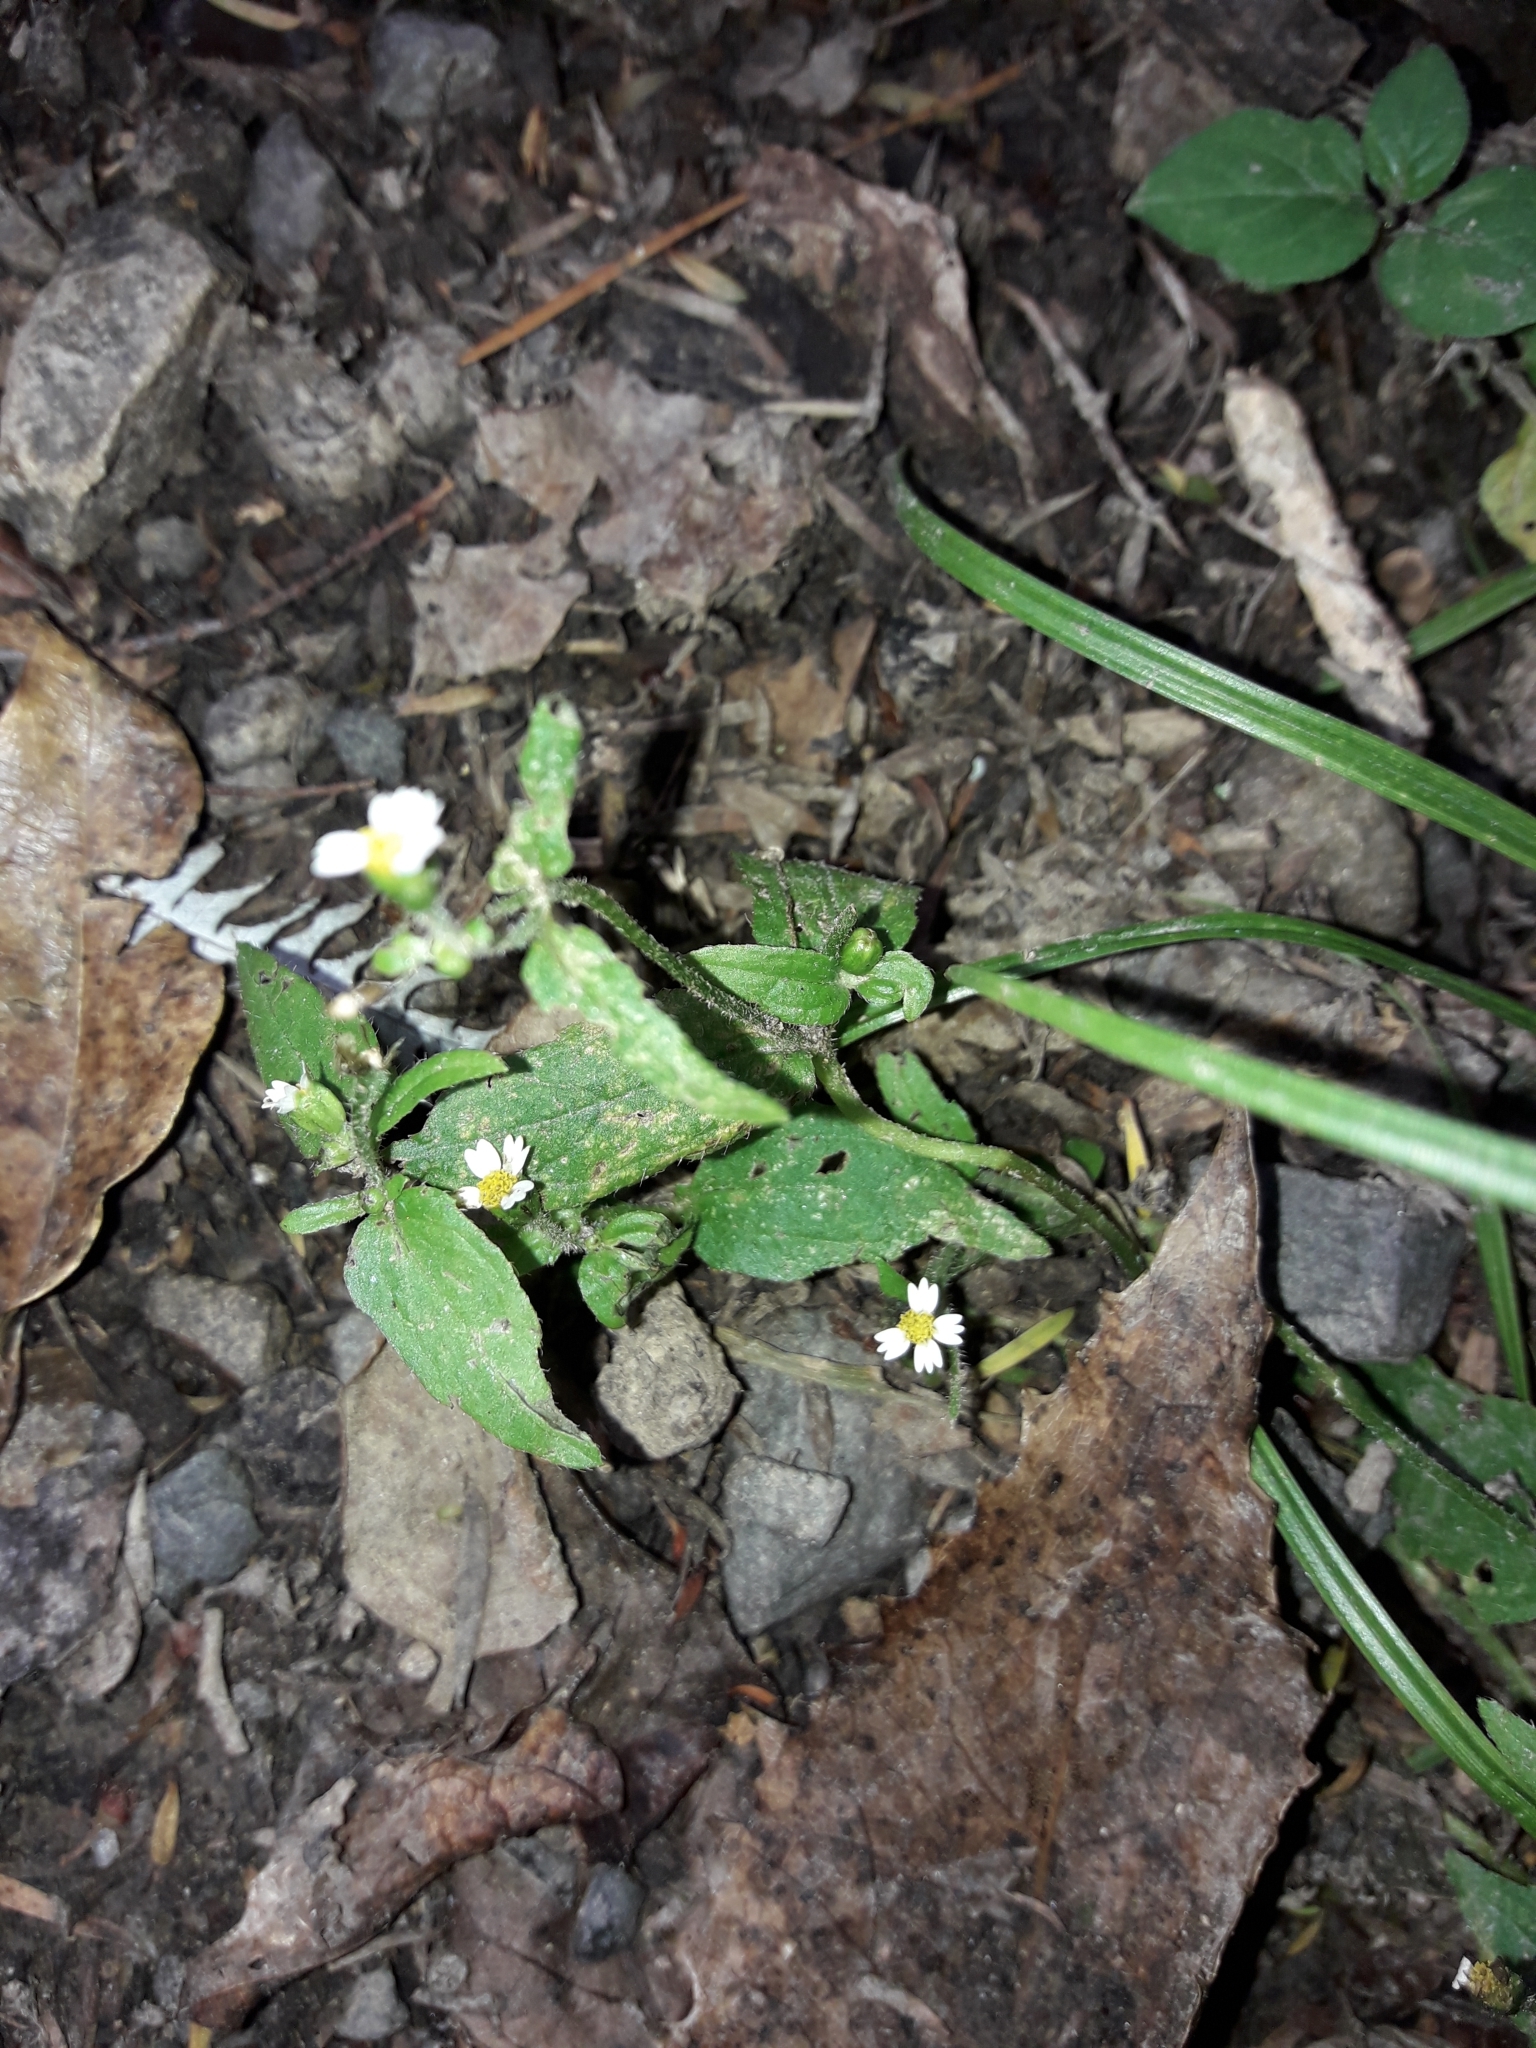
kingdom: Plantae
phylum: Tracheophyta
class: Magnoliopsida
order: Asterales
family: Asteraceae
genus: Galinsoga
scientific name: Galinsoga parviflora
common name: Gallant soldier
